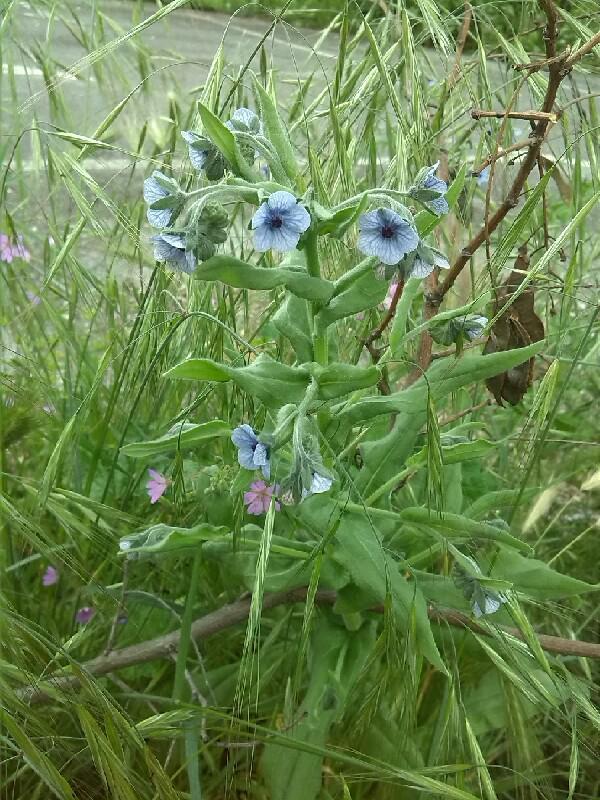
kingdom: Plantae
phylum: Tracheophyta
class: Magnoliopsida
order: Boraginales
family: Boraginaceae
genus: Cynoglossum
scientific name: Cynoglossum creticum
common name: Blue hound's tongue
